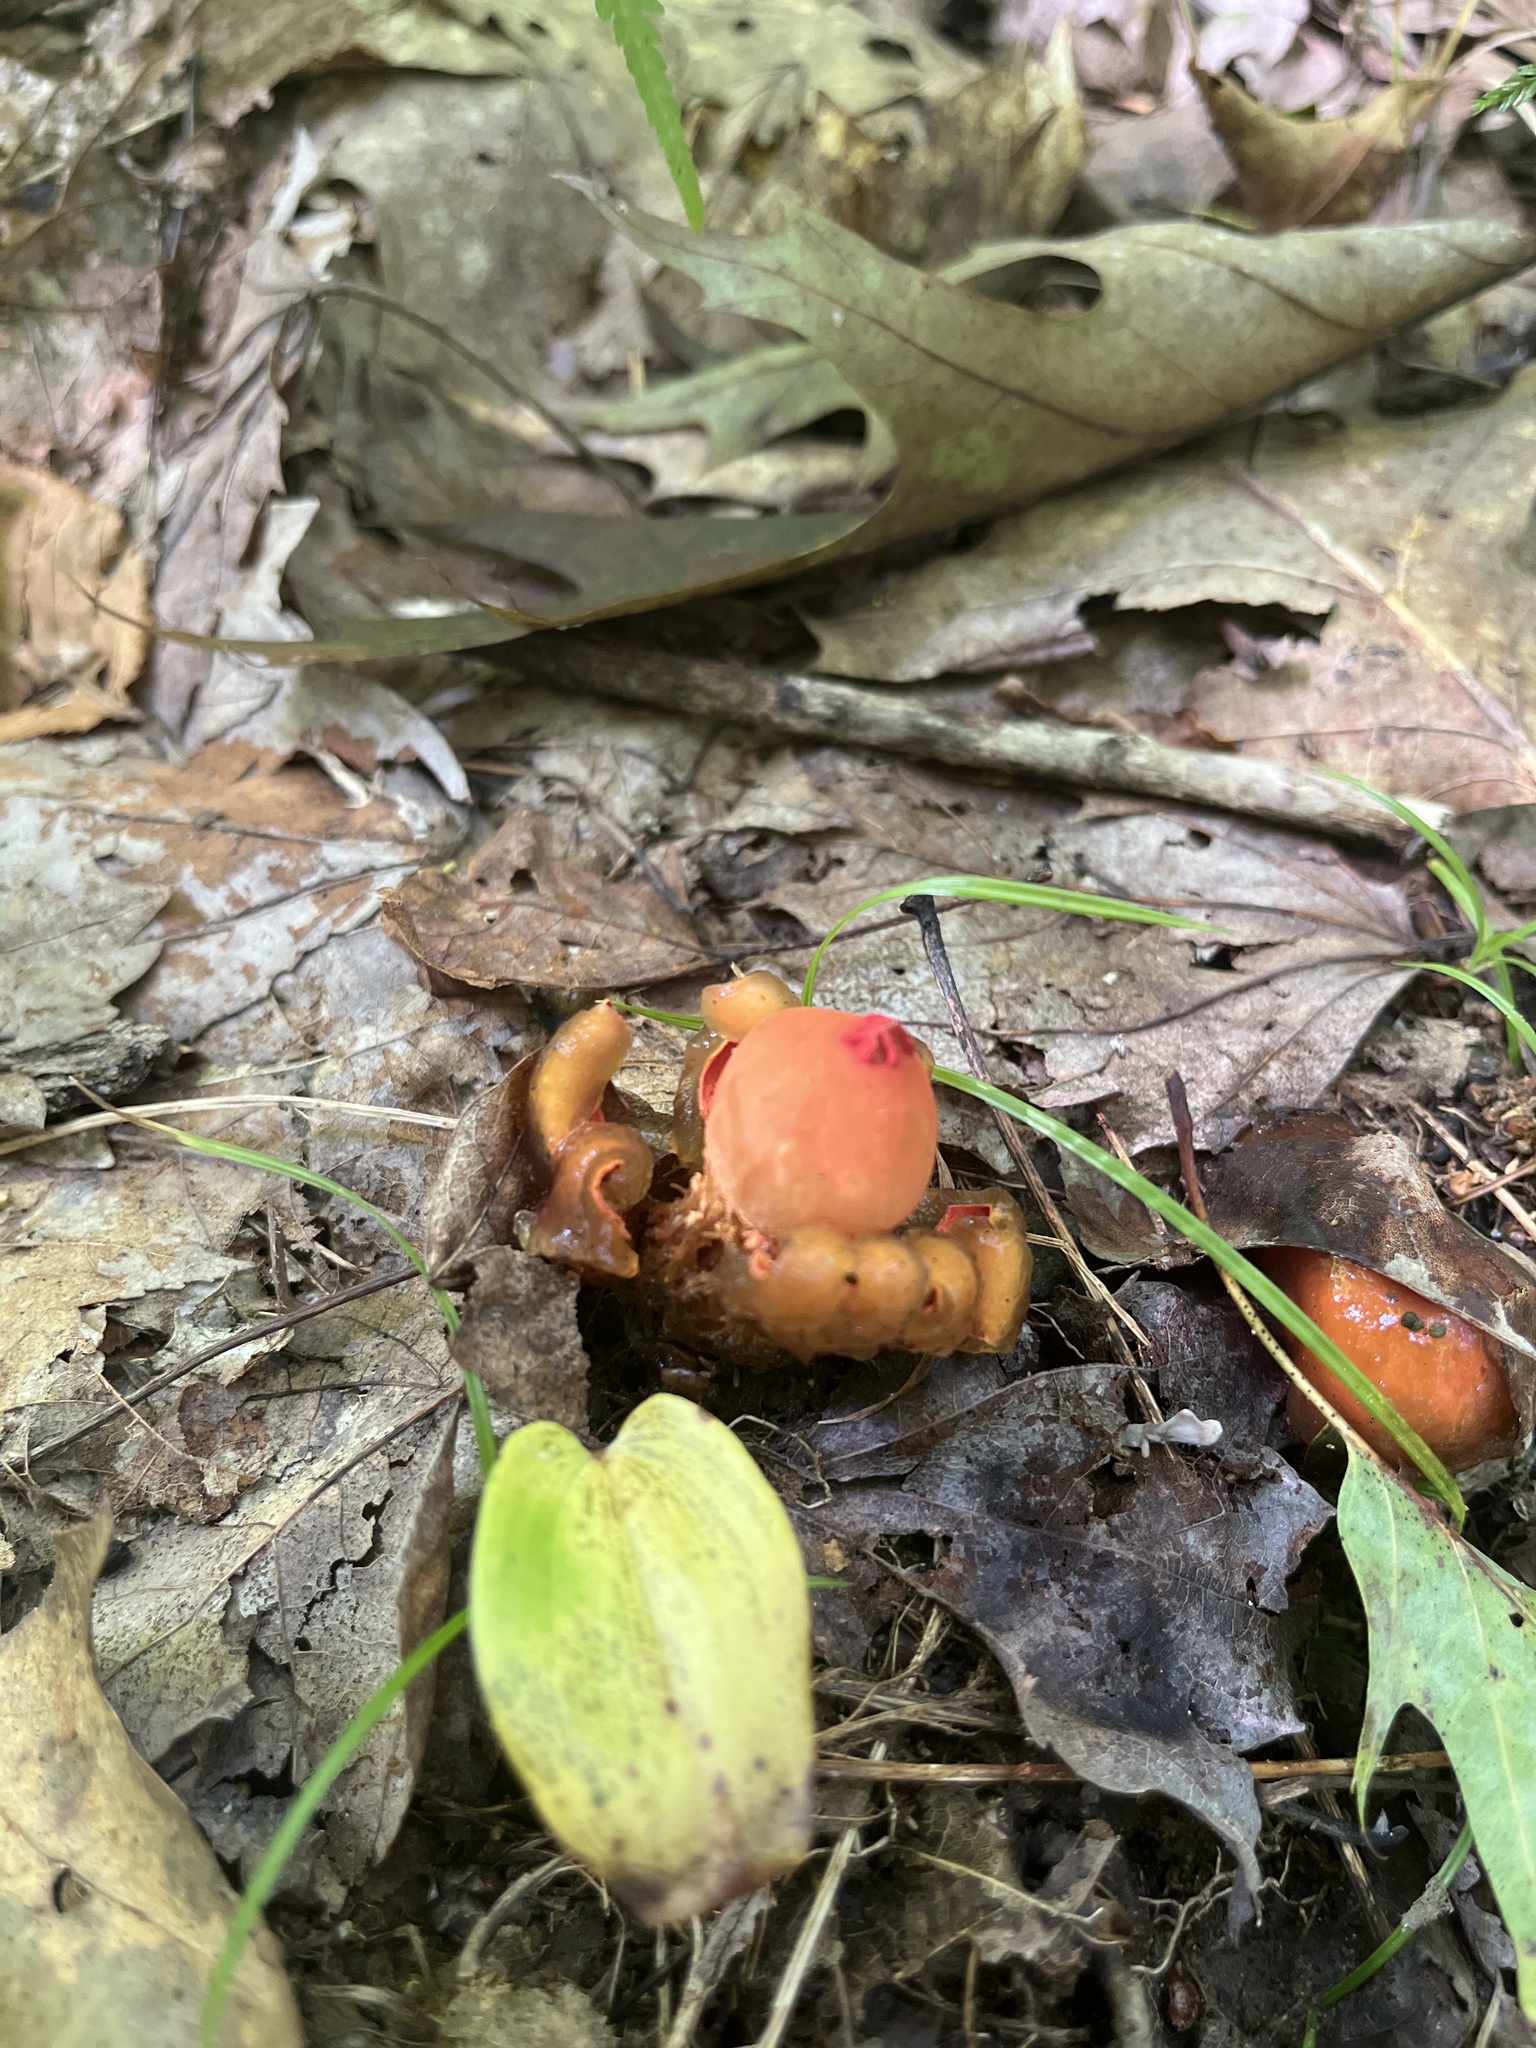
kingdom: Fungi
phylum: Basidiomycota
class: Agaricomycetes
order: Boletales
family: Calostomataceae
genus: Calostoma
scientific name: Calostoma cinnabarinum
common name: Stalked puffball-in-aspic
